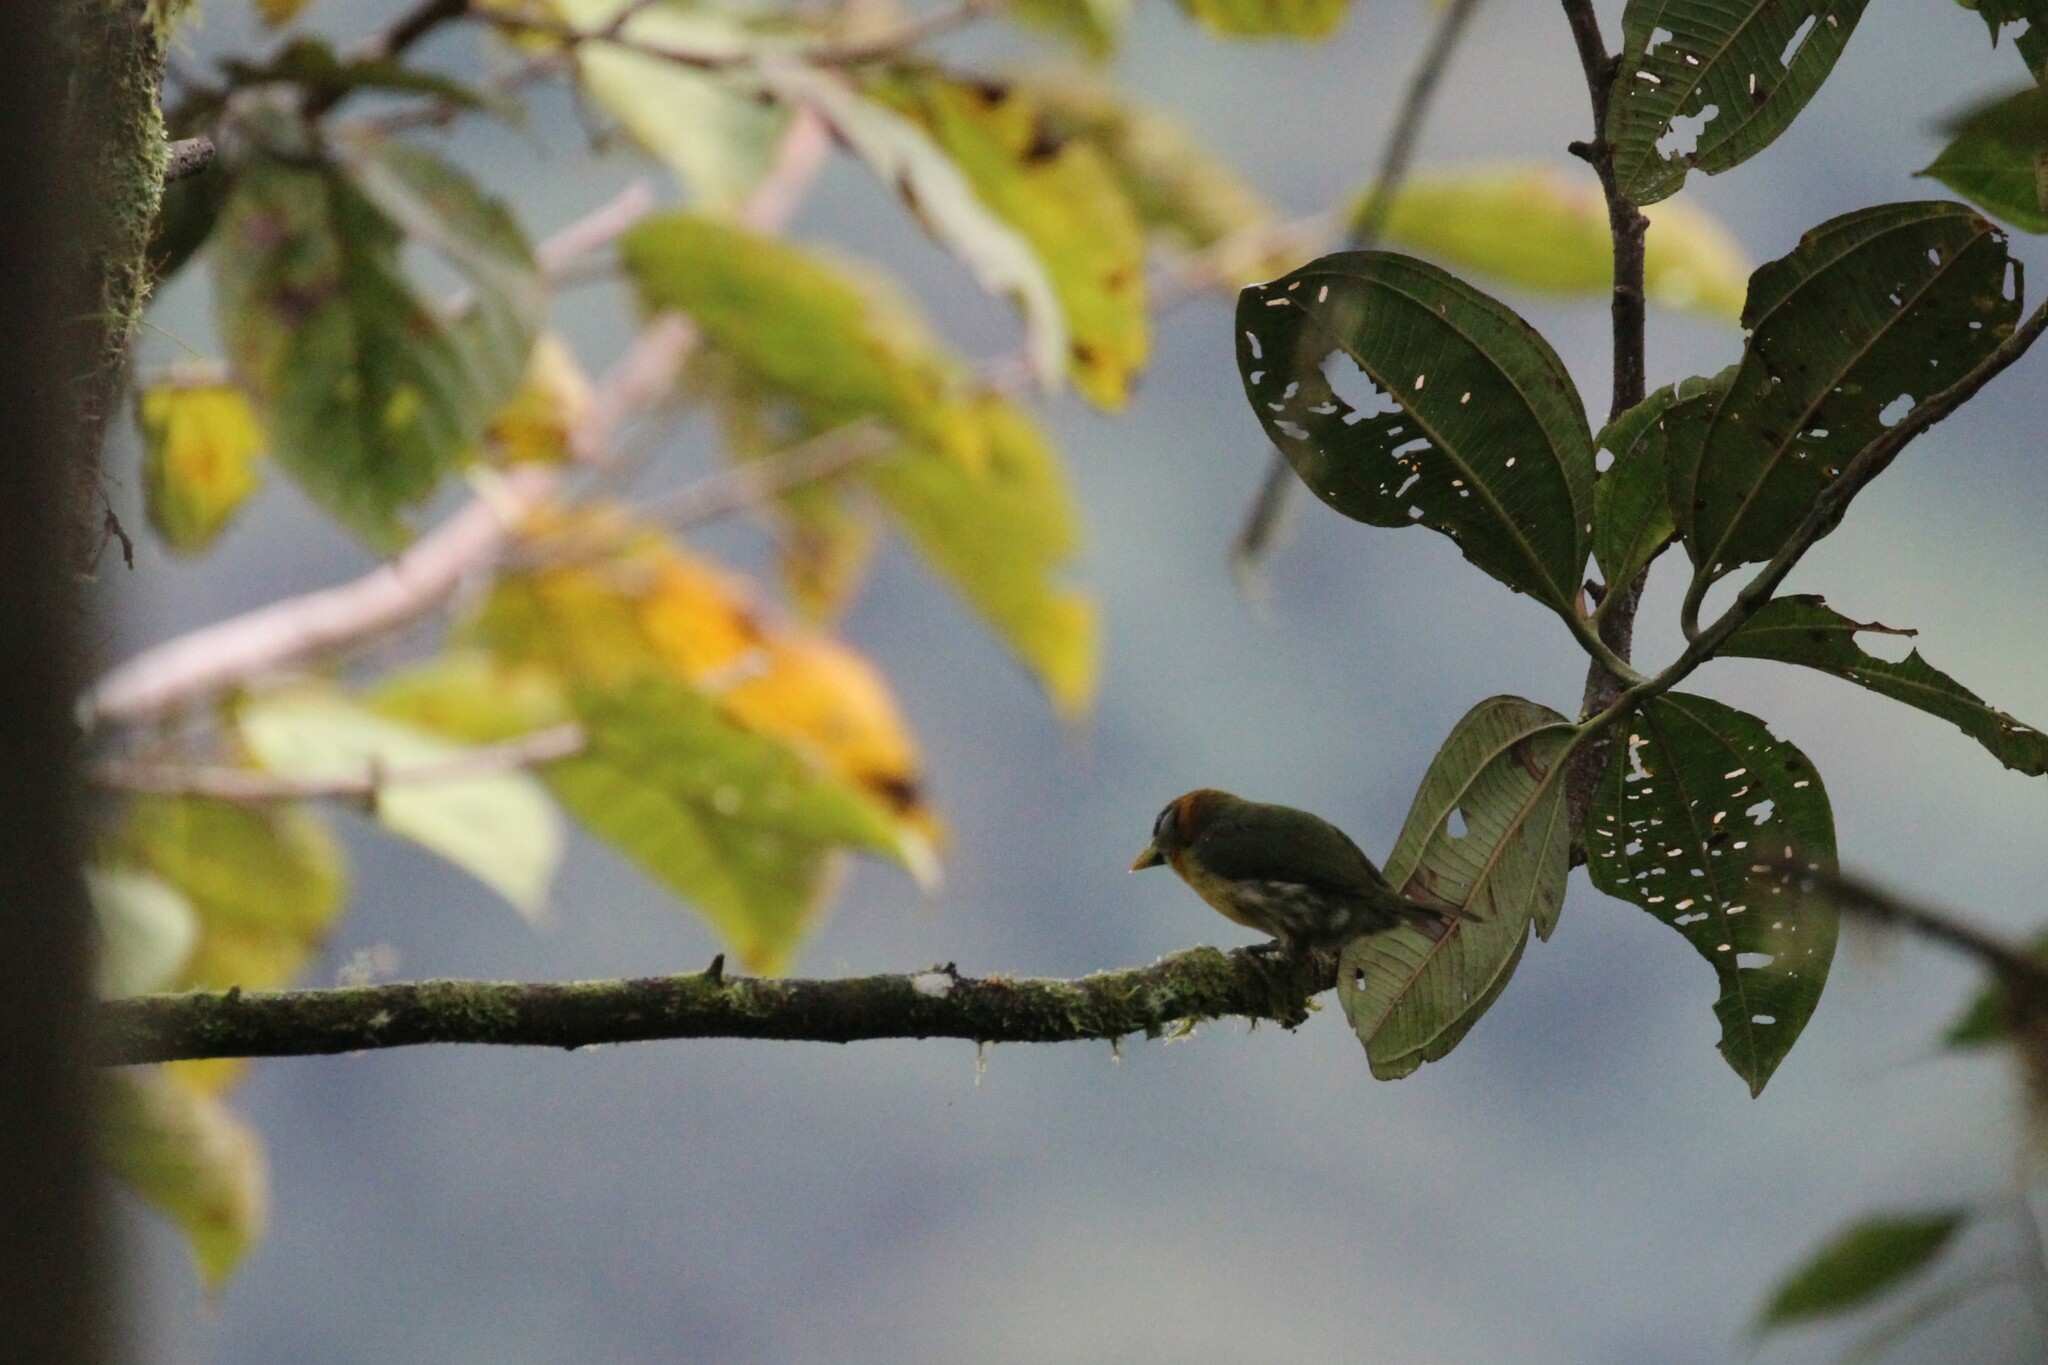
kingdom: Animalia
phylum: Chordata
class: Aves
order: Piciformes
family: Capitonidae
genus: Eubucco
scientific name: Eubucco bourcierii
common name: Red-headed barbet
